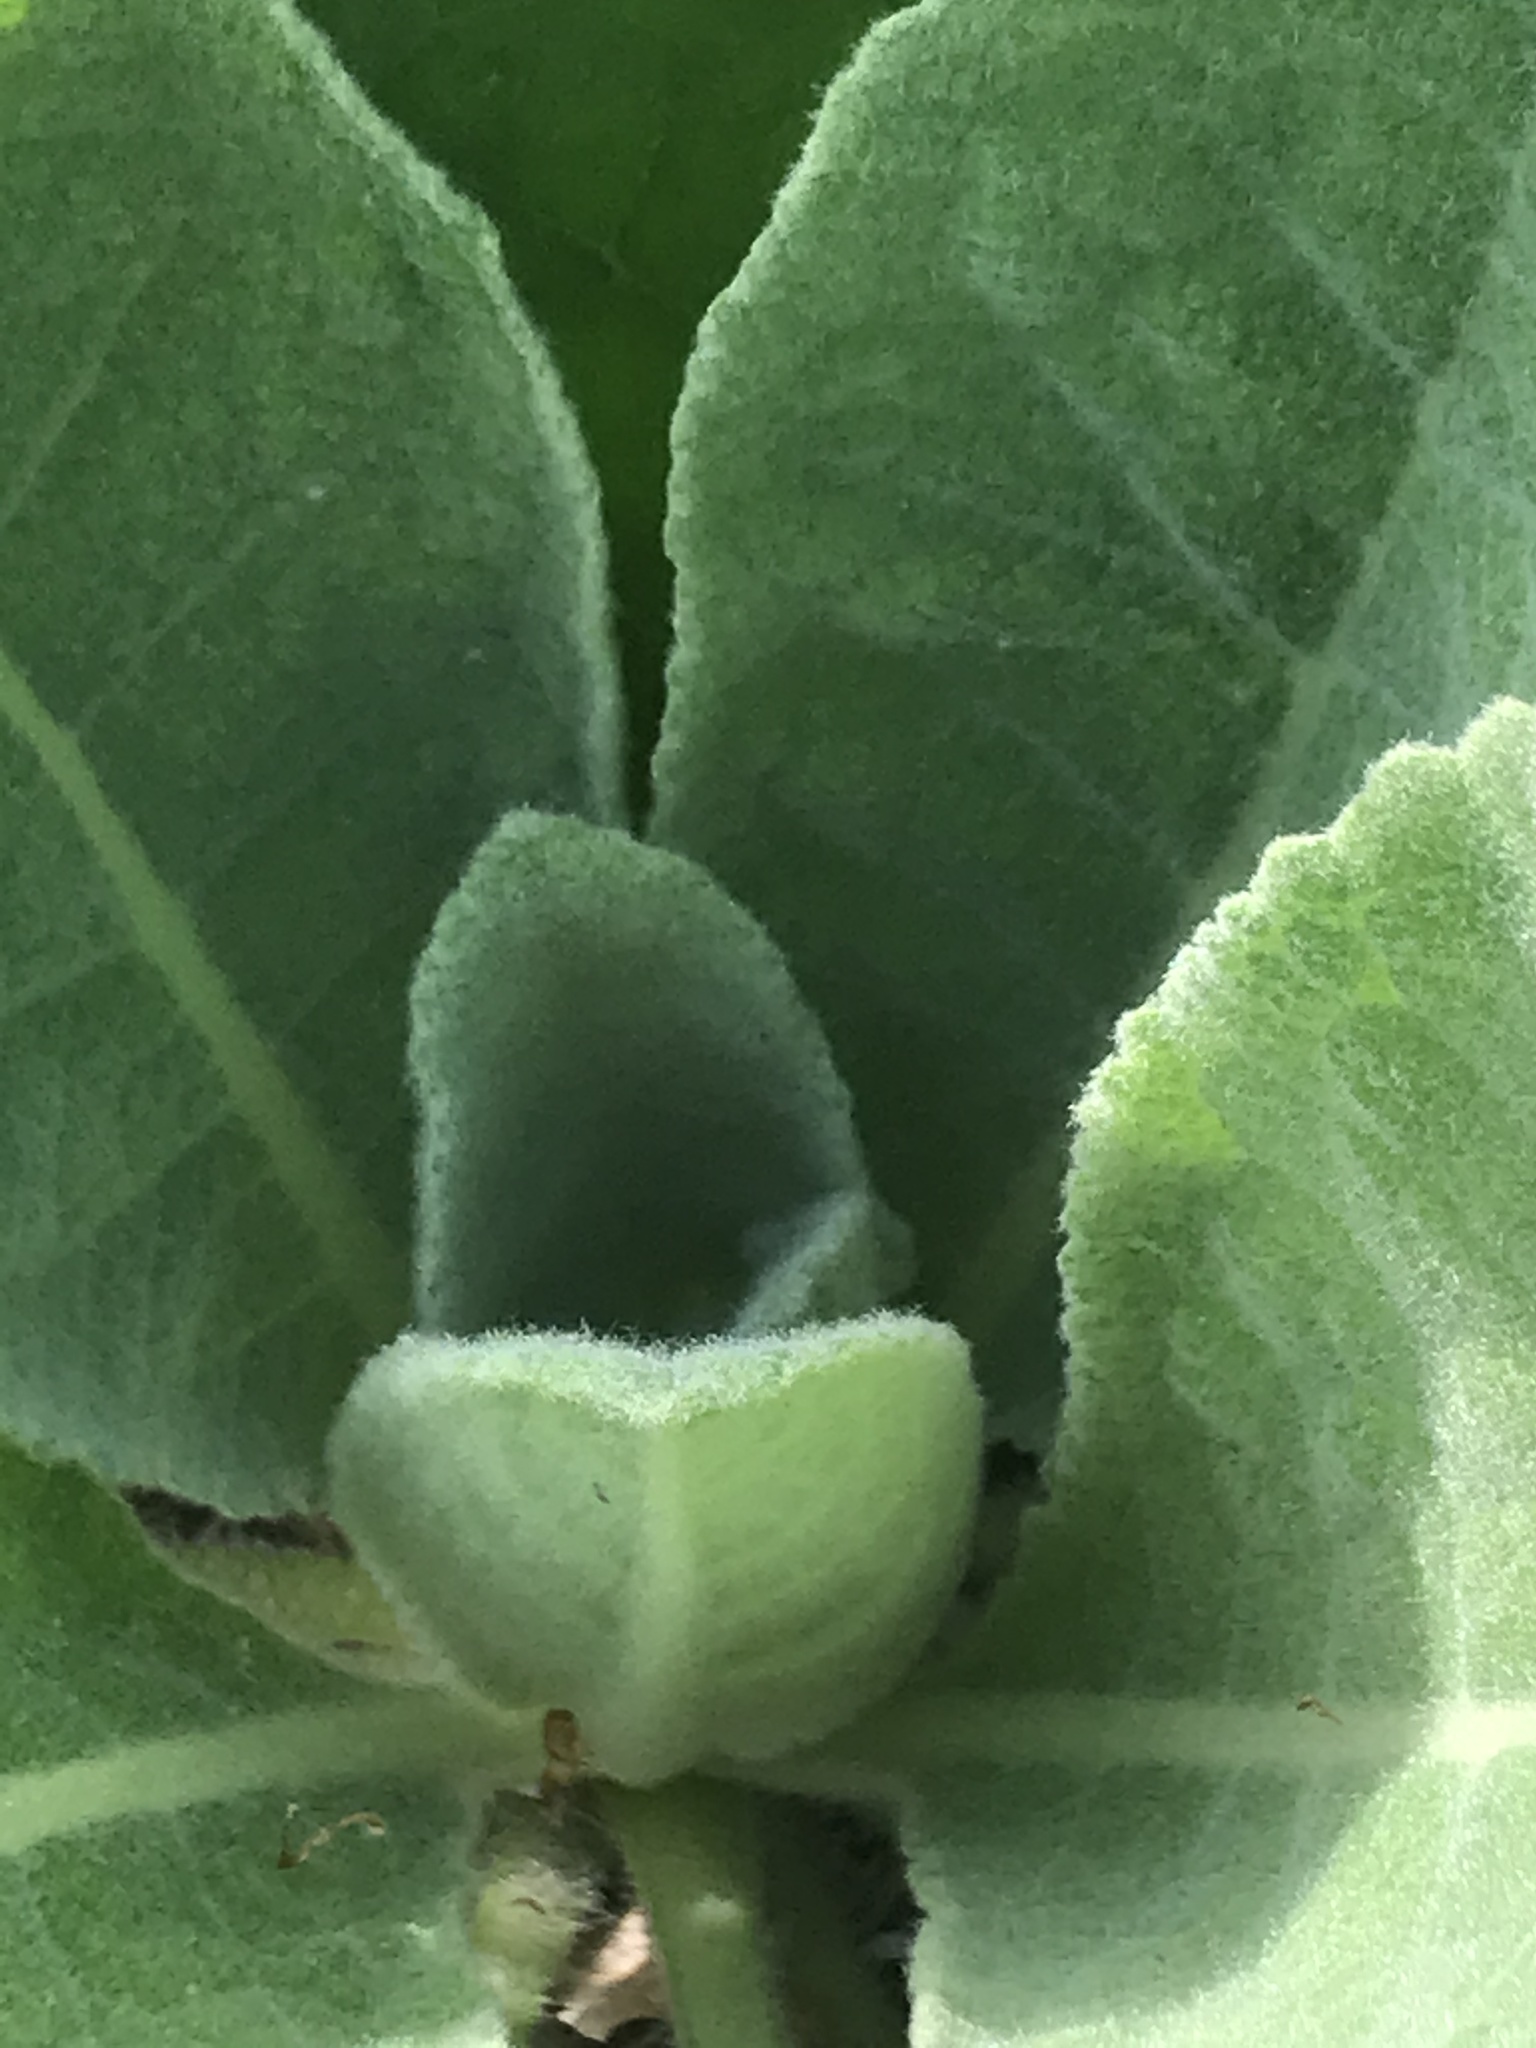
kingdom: Plantae
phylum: Tracheophyta
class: Magnoliopsida
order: Lamiales
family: Scrophulariaceae
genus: Verbascum
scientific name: Verbascum thapsus
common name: Common mullein
